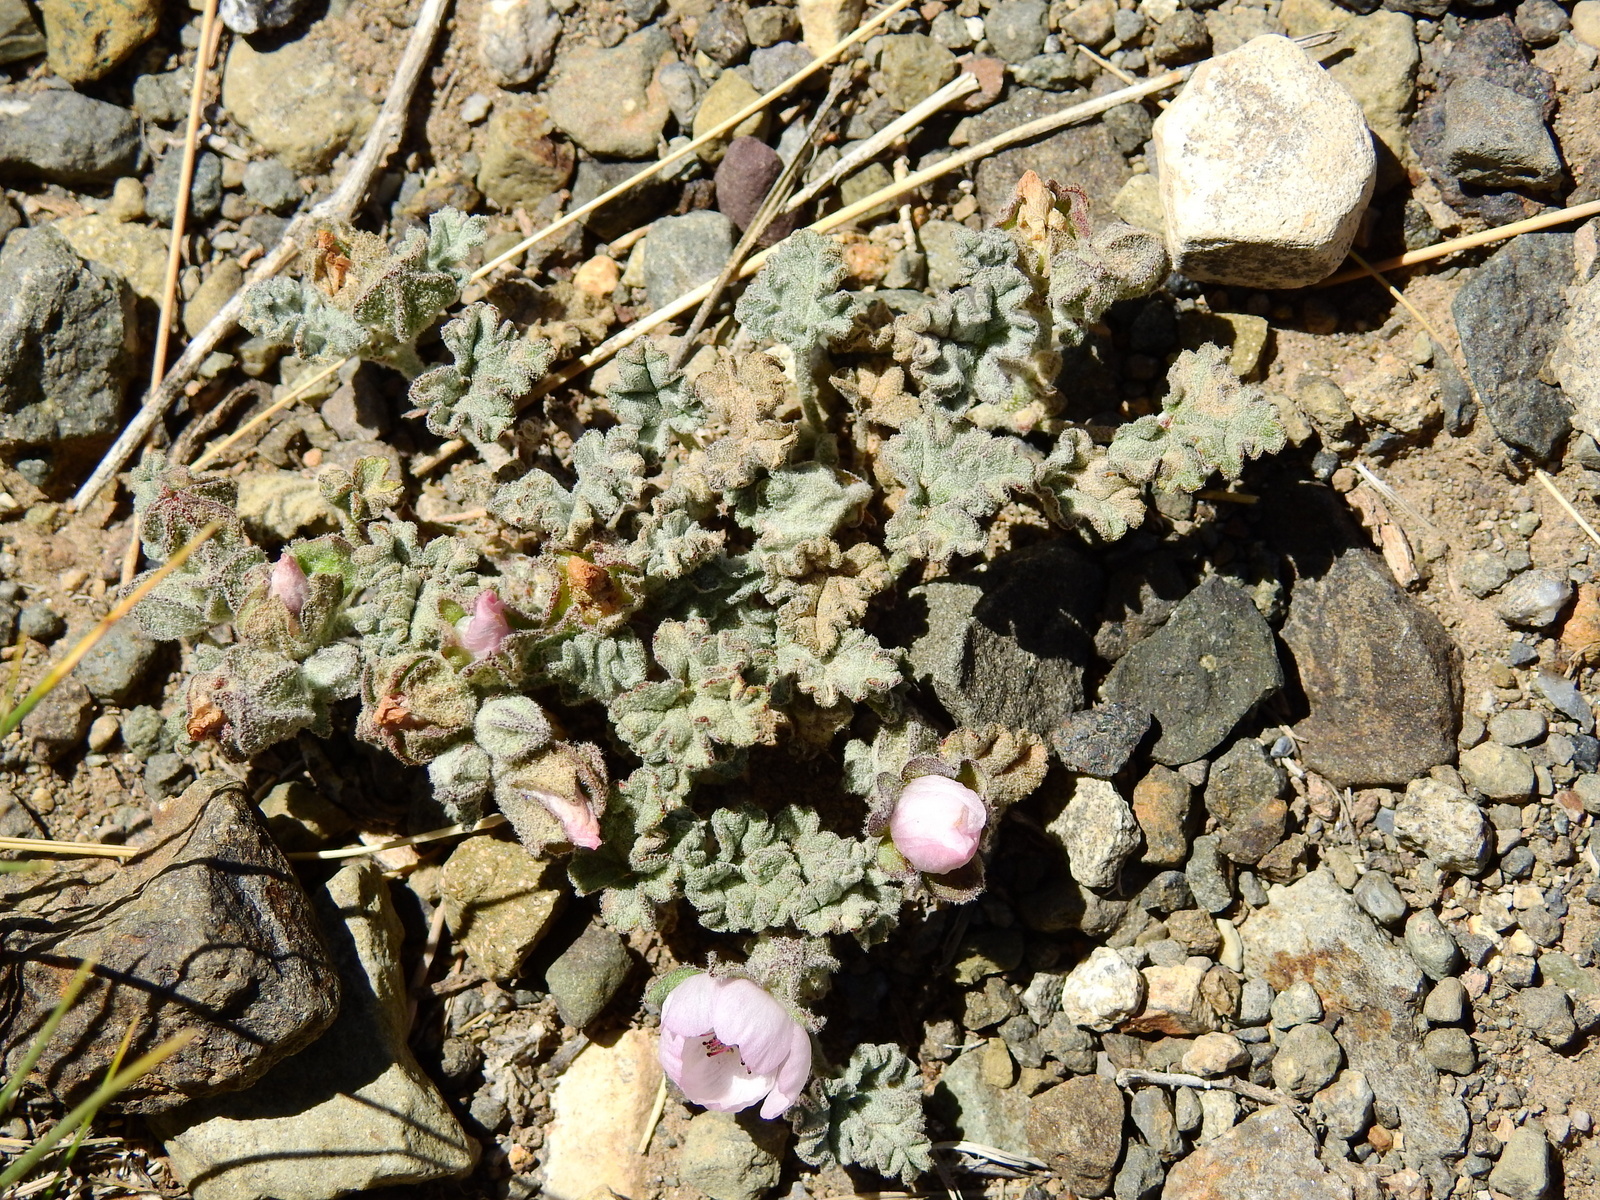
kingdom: Plantae
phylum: Tracheophyta
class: Magnoliopsida
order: Malvales
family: Malvaceae
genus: Sphaeralcea
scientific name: Sphaeralcea philippiana
